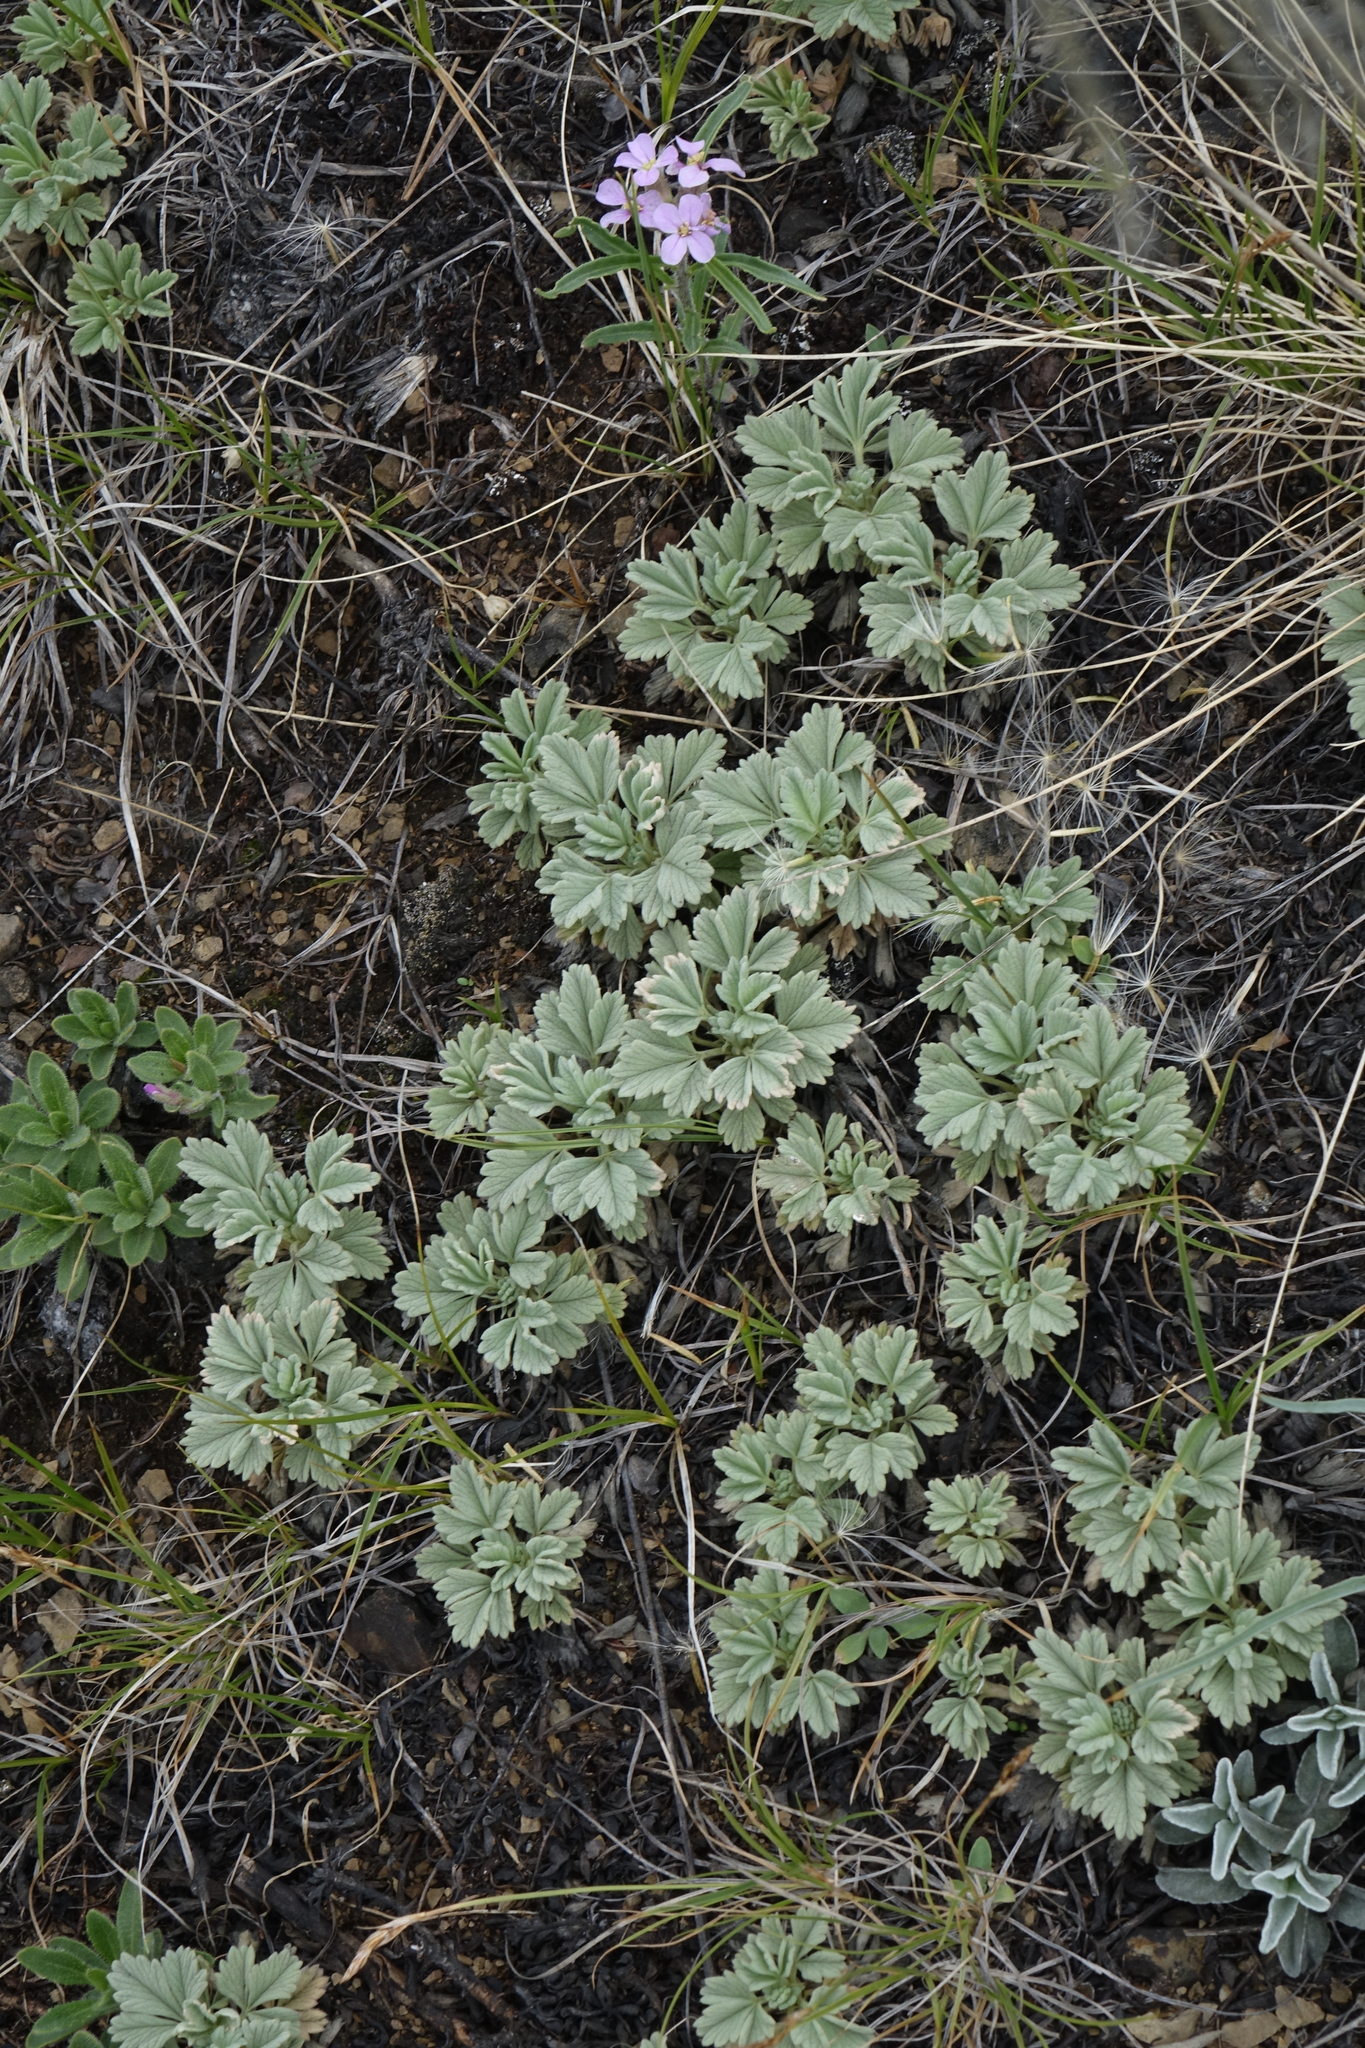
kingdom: Plantae
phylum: Tracheophyta
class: Magnoliopsida
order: Rosales
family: Rosaceae
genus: Potentilla
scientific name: Potentilla acaulis
